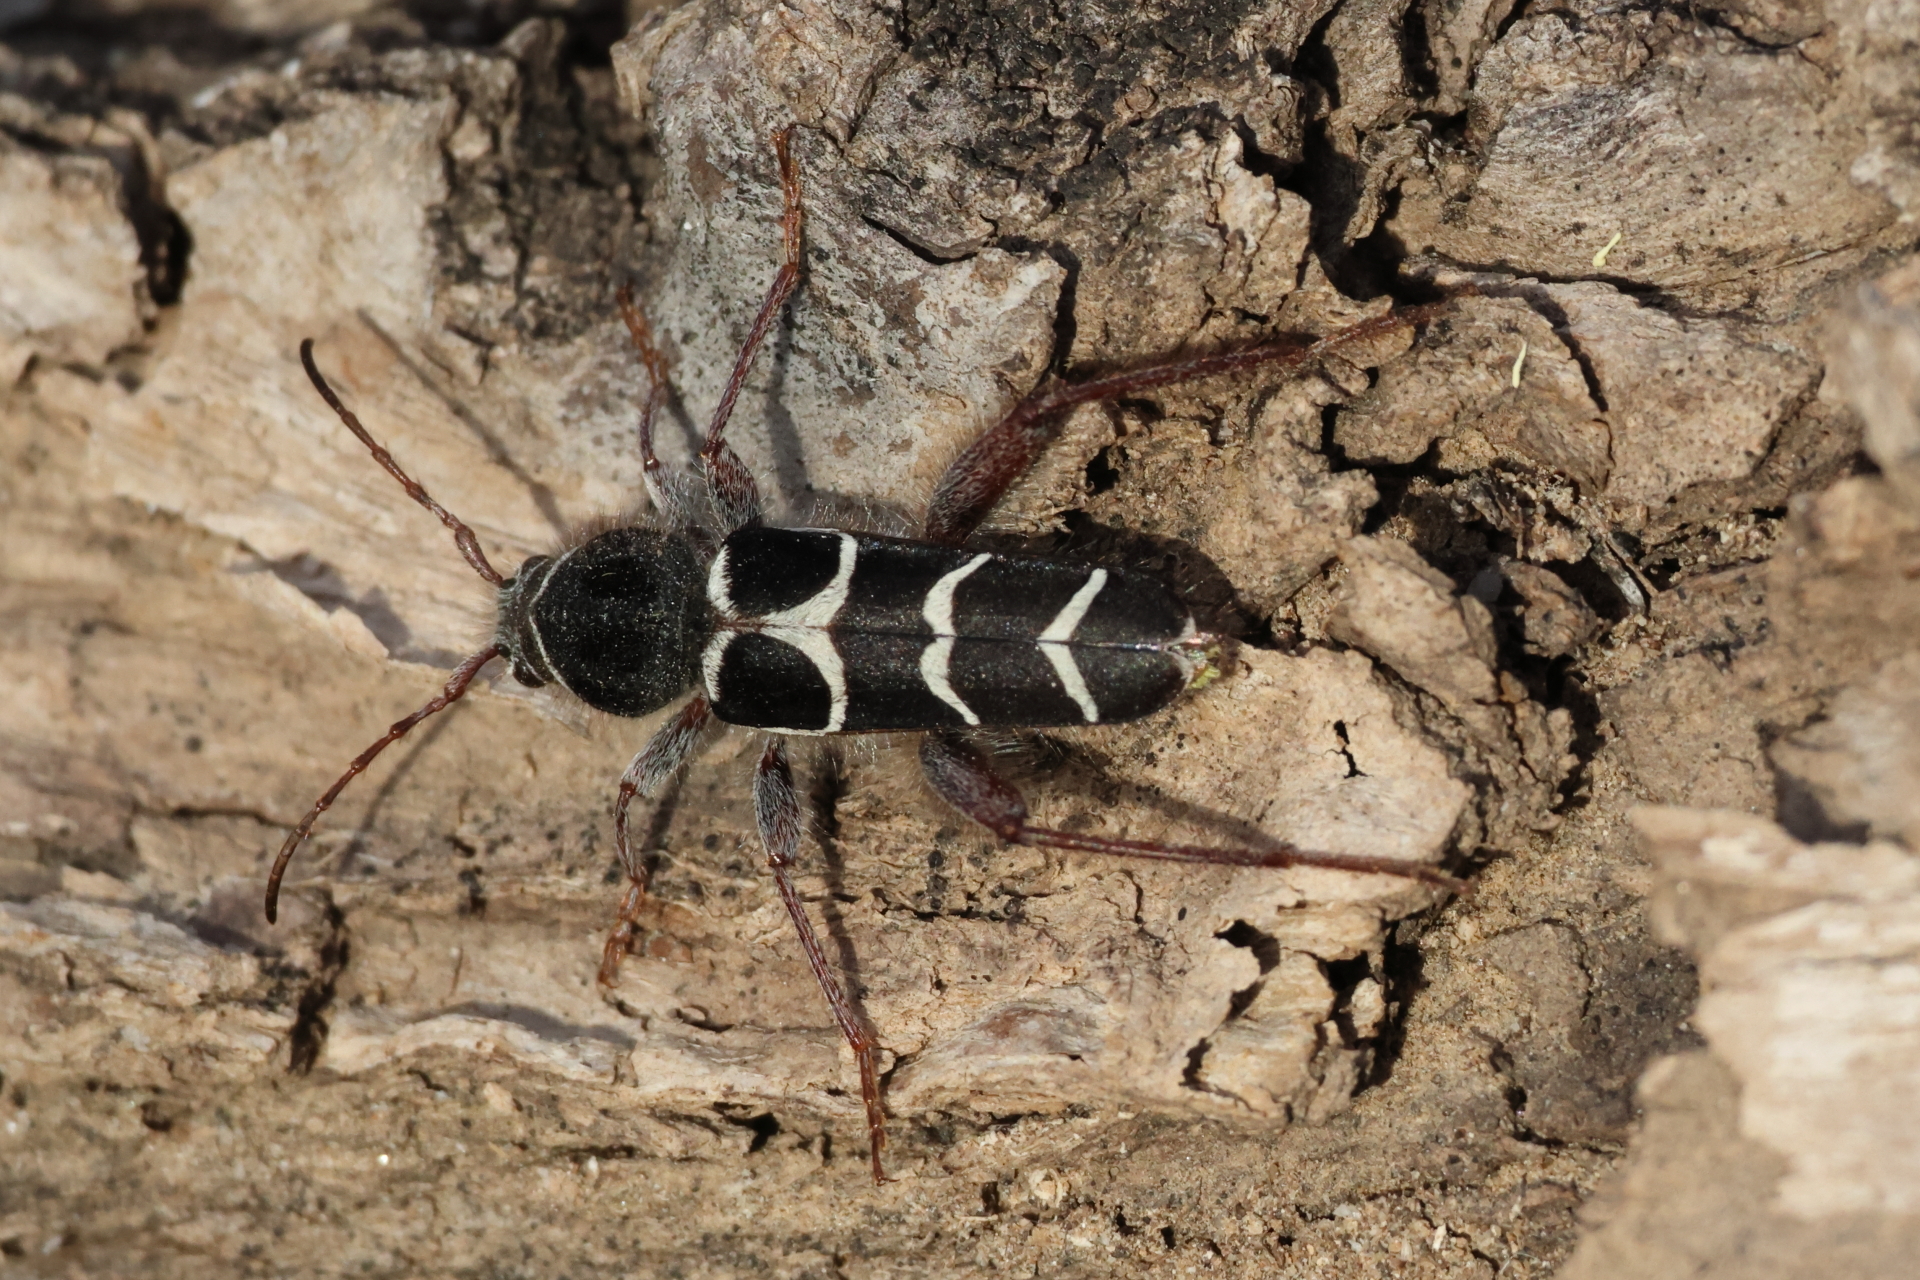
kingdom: Animalia
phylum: Arthropoda
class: Insecta
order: Coleoptera
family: Cerambycidae
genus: Neoclytus
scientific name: Neoclytus caprea
